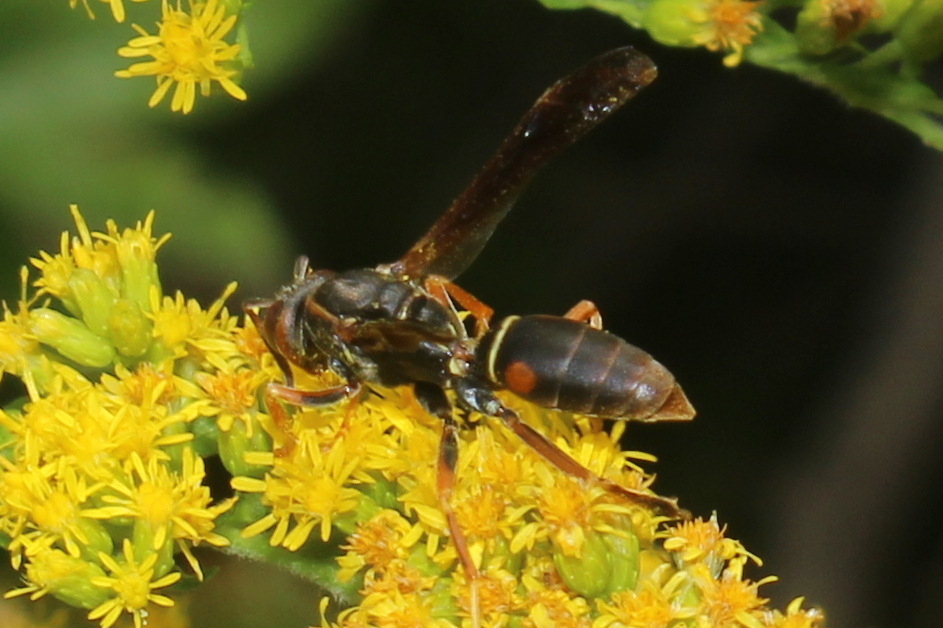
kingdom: Animalia
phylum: Arthropoda
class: Insecta
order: Hymenoptera
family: Eumenidae
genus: Polistes
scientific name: Polistes fuscatus
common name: Dark paper wasp
